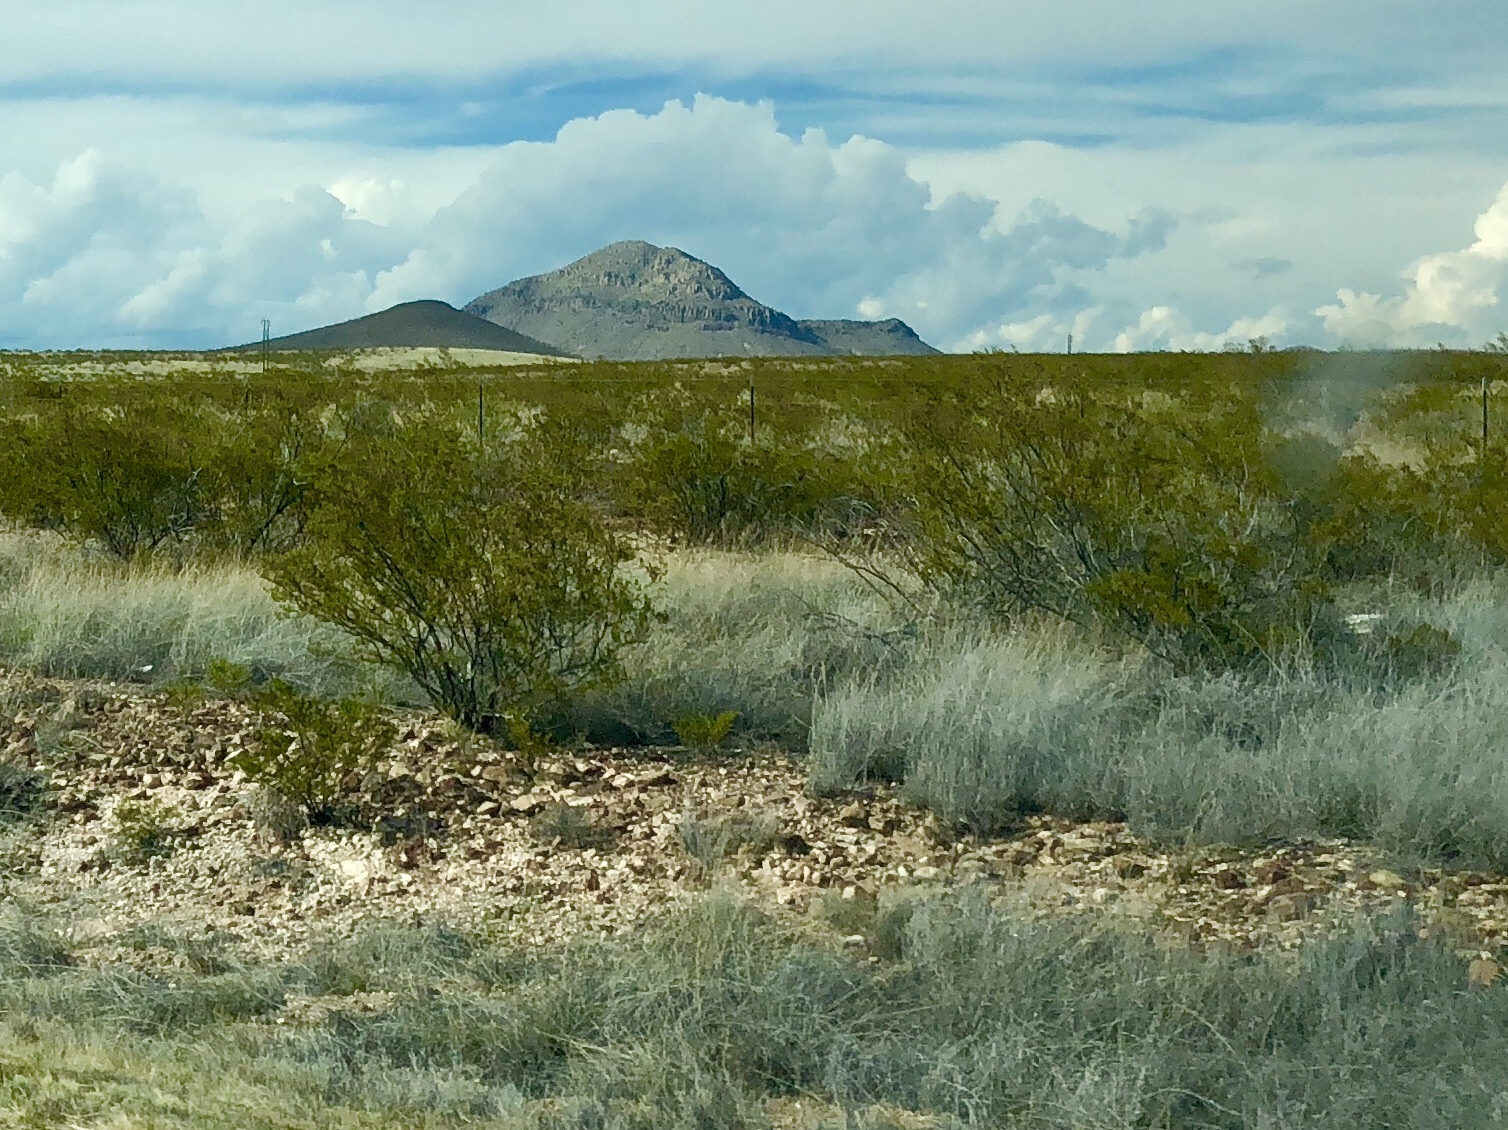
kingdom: Plantae
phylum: Tracheophyta
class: Magnoliopsida
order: Zygophyllales
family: Zygophyllaceae
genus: Larrea
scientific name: Larrea tridentata
